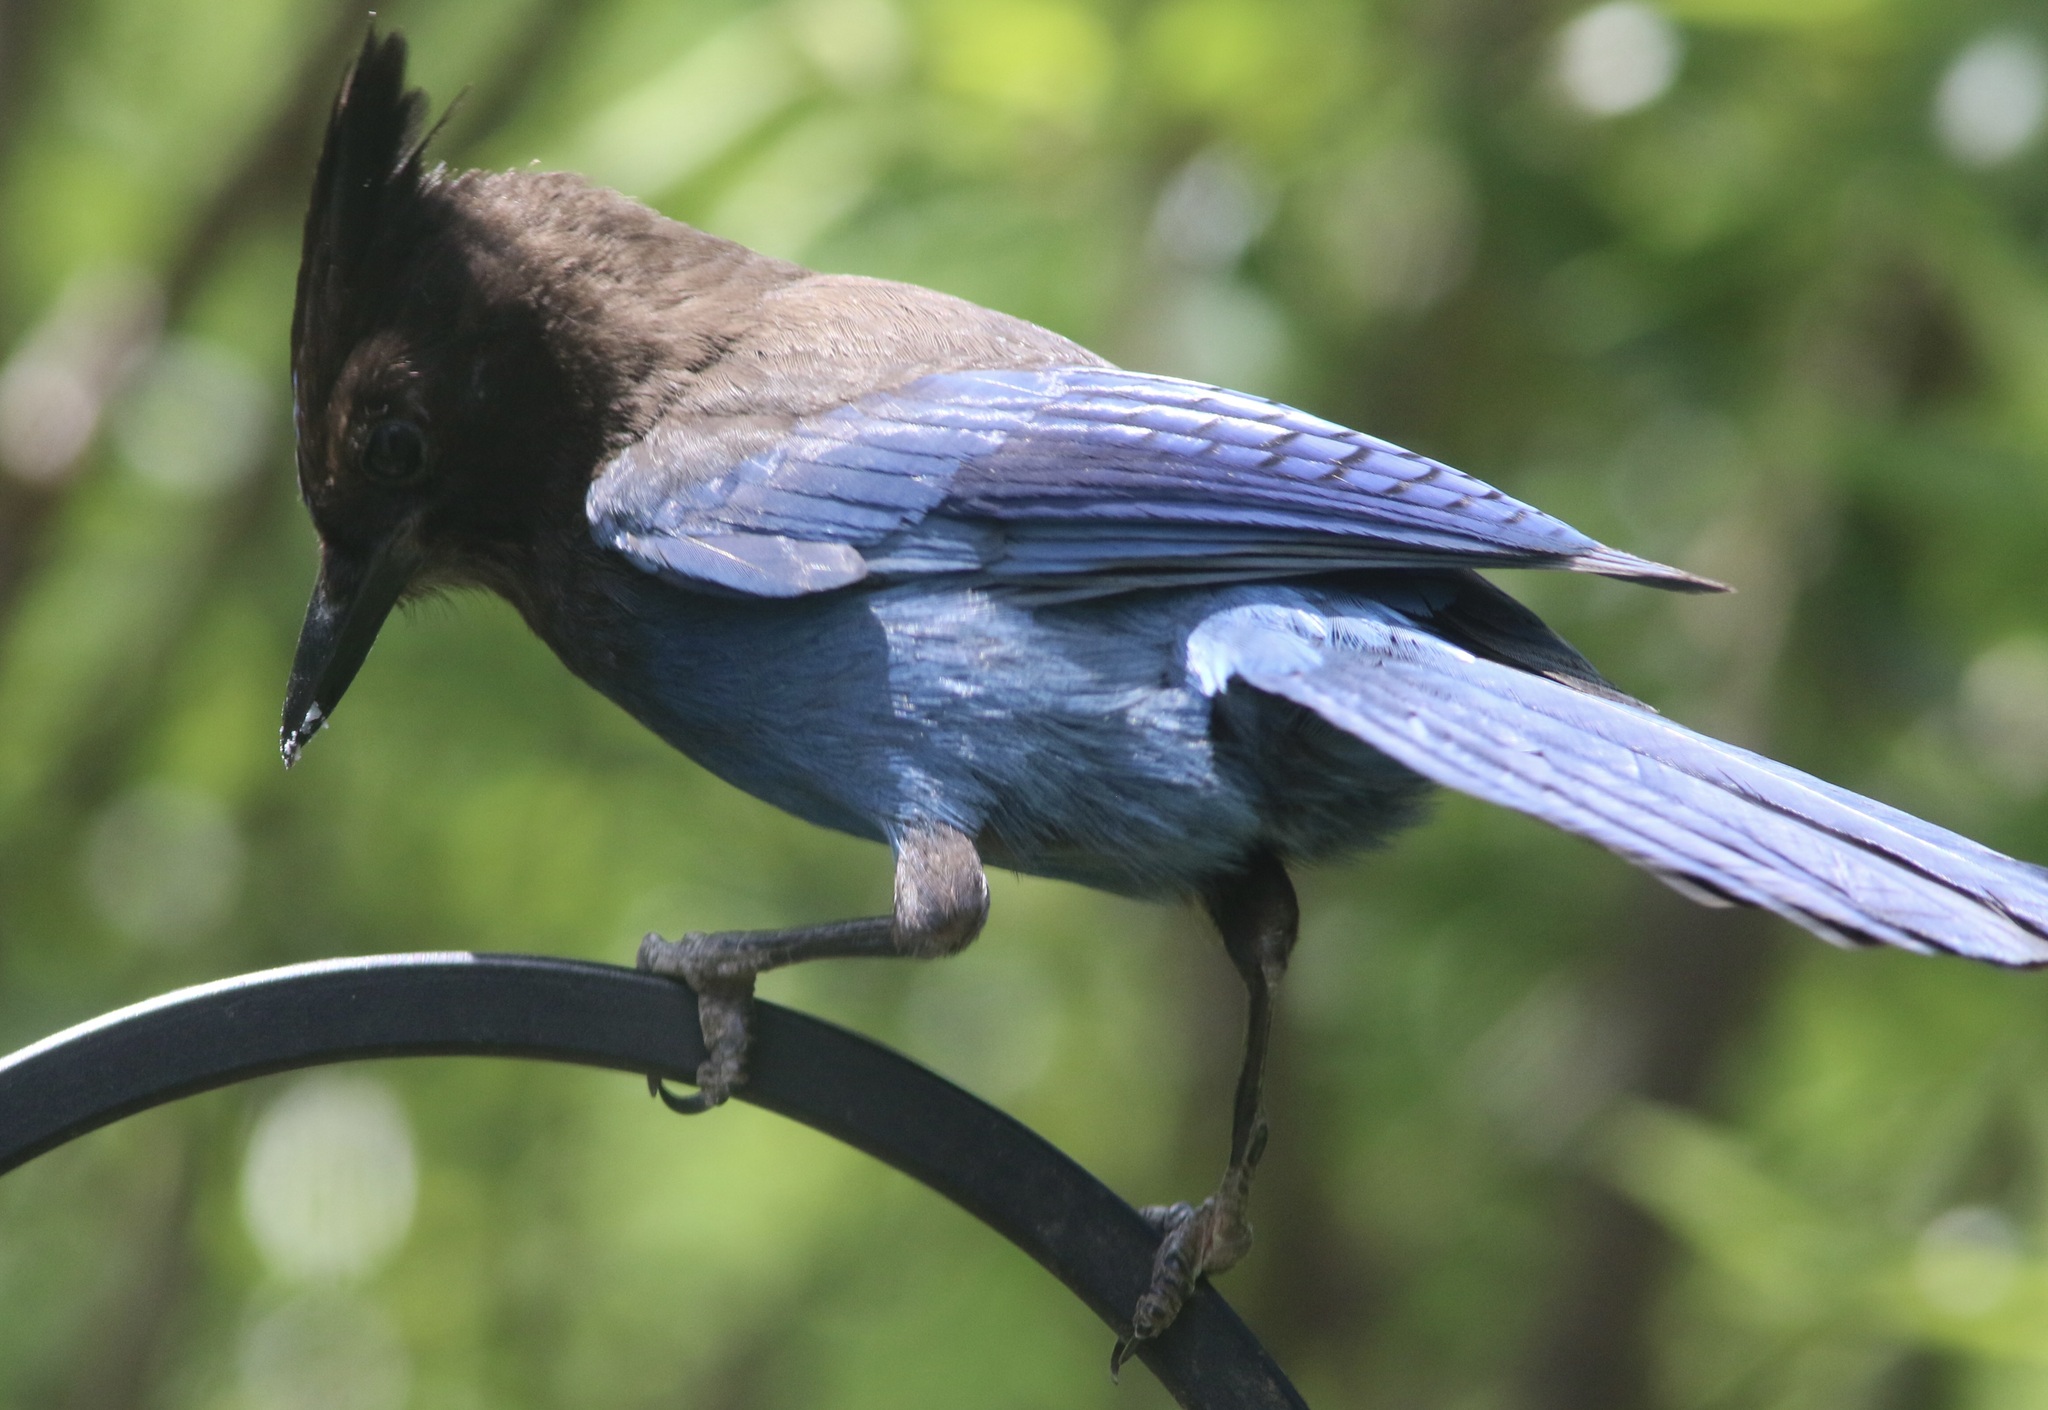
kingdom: Animalia
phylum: Chordata
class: Aves
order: Passeriformes
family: Corvidae
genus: Cyanocitta
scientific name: Cyanocitta stelleri
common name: Steller's jay
